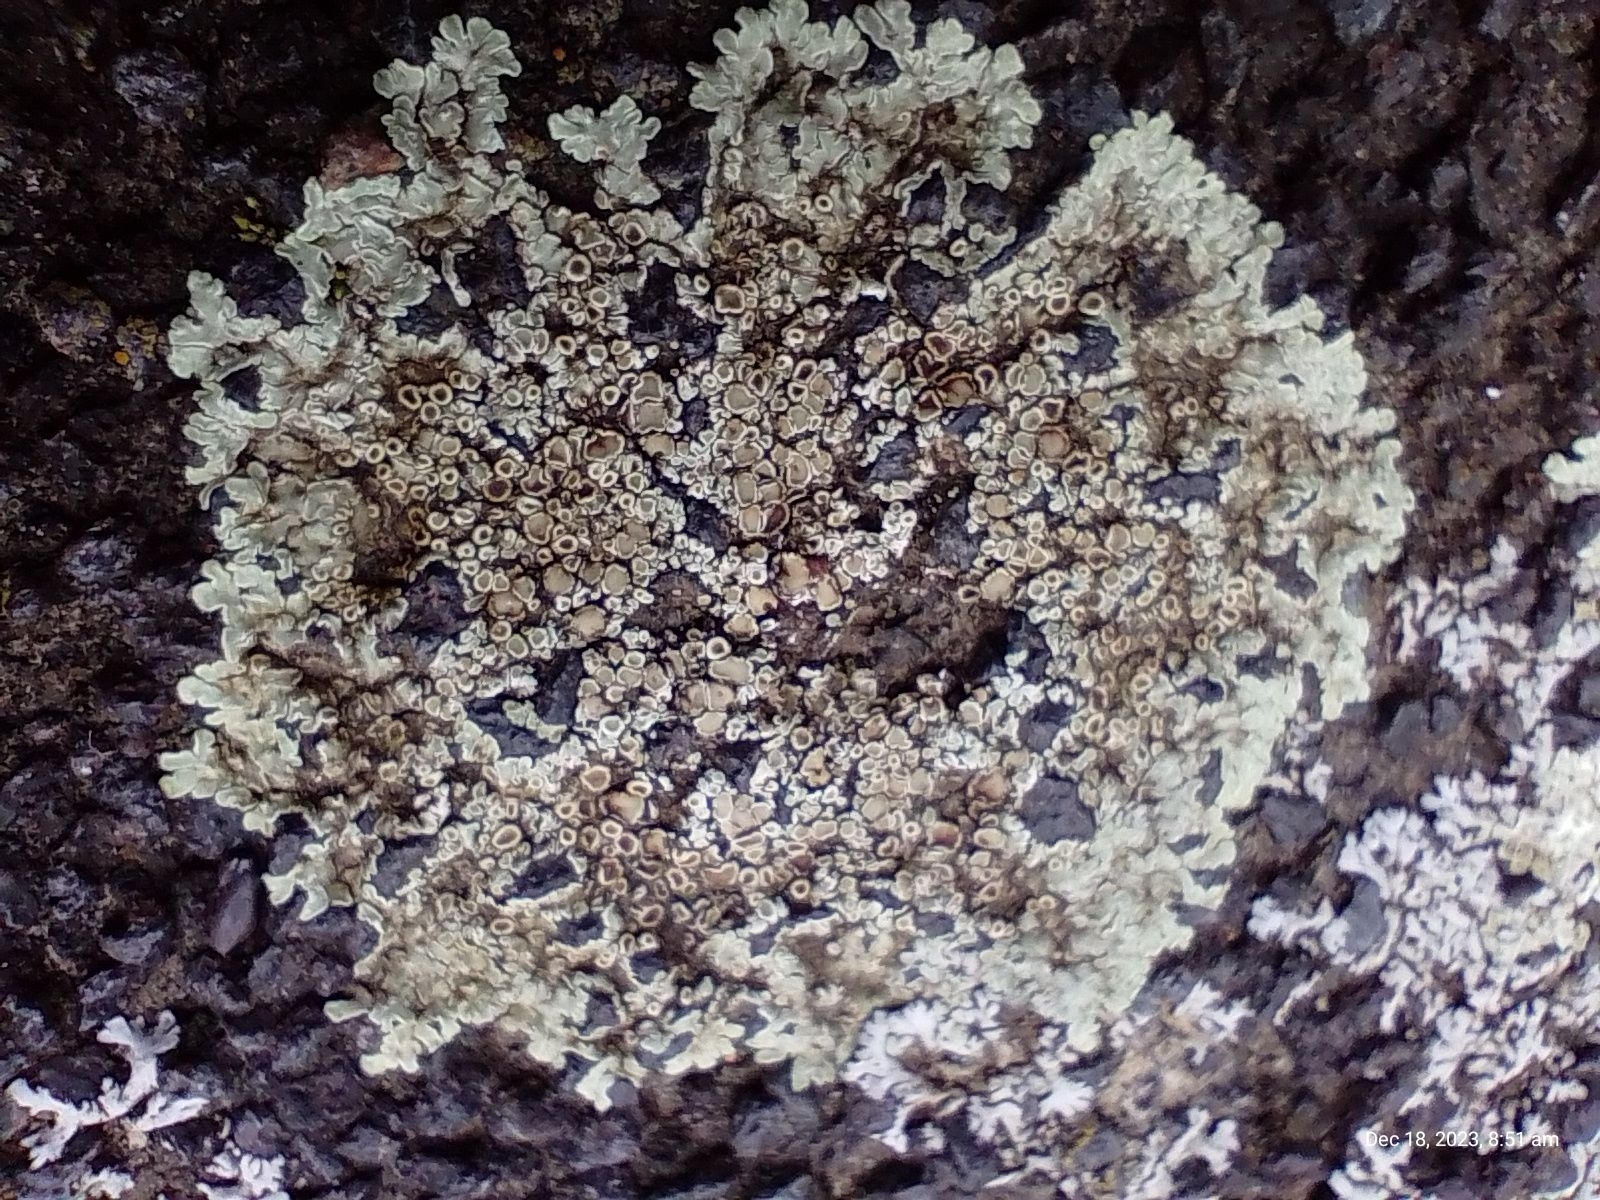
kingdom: Fungi
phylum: Ascomycota
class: Lecanoromycetes
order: Lecanorales
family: Lecanoraceae
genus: Protoparmeliopsis
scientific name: Protoparmeliopsis muralis
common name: Stonewall rim lichen
